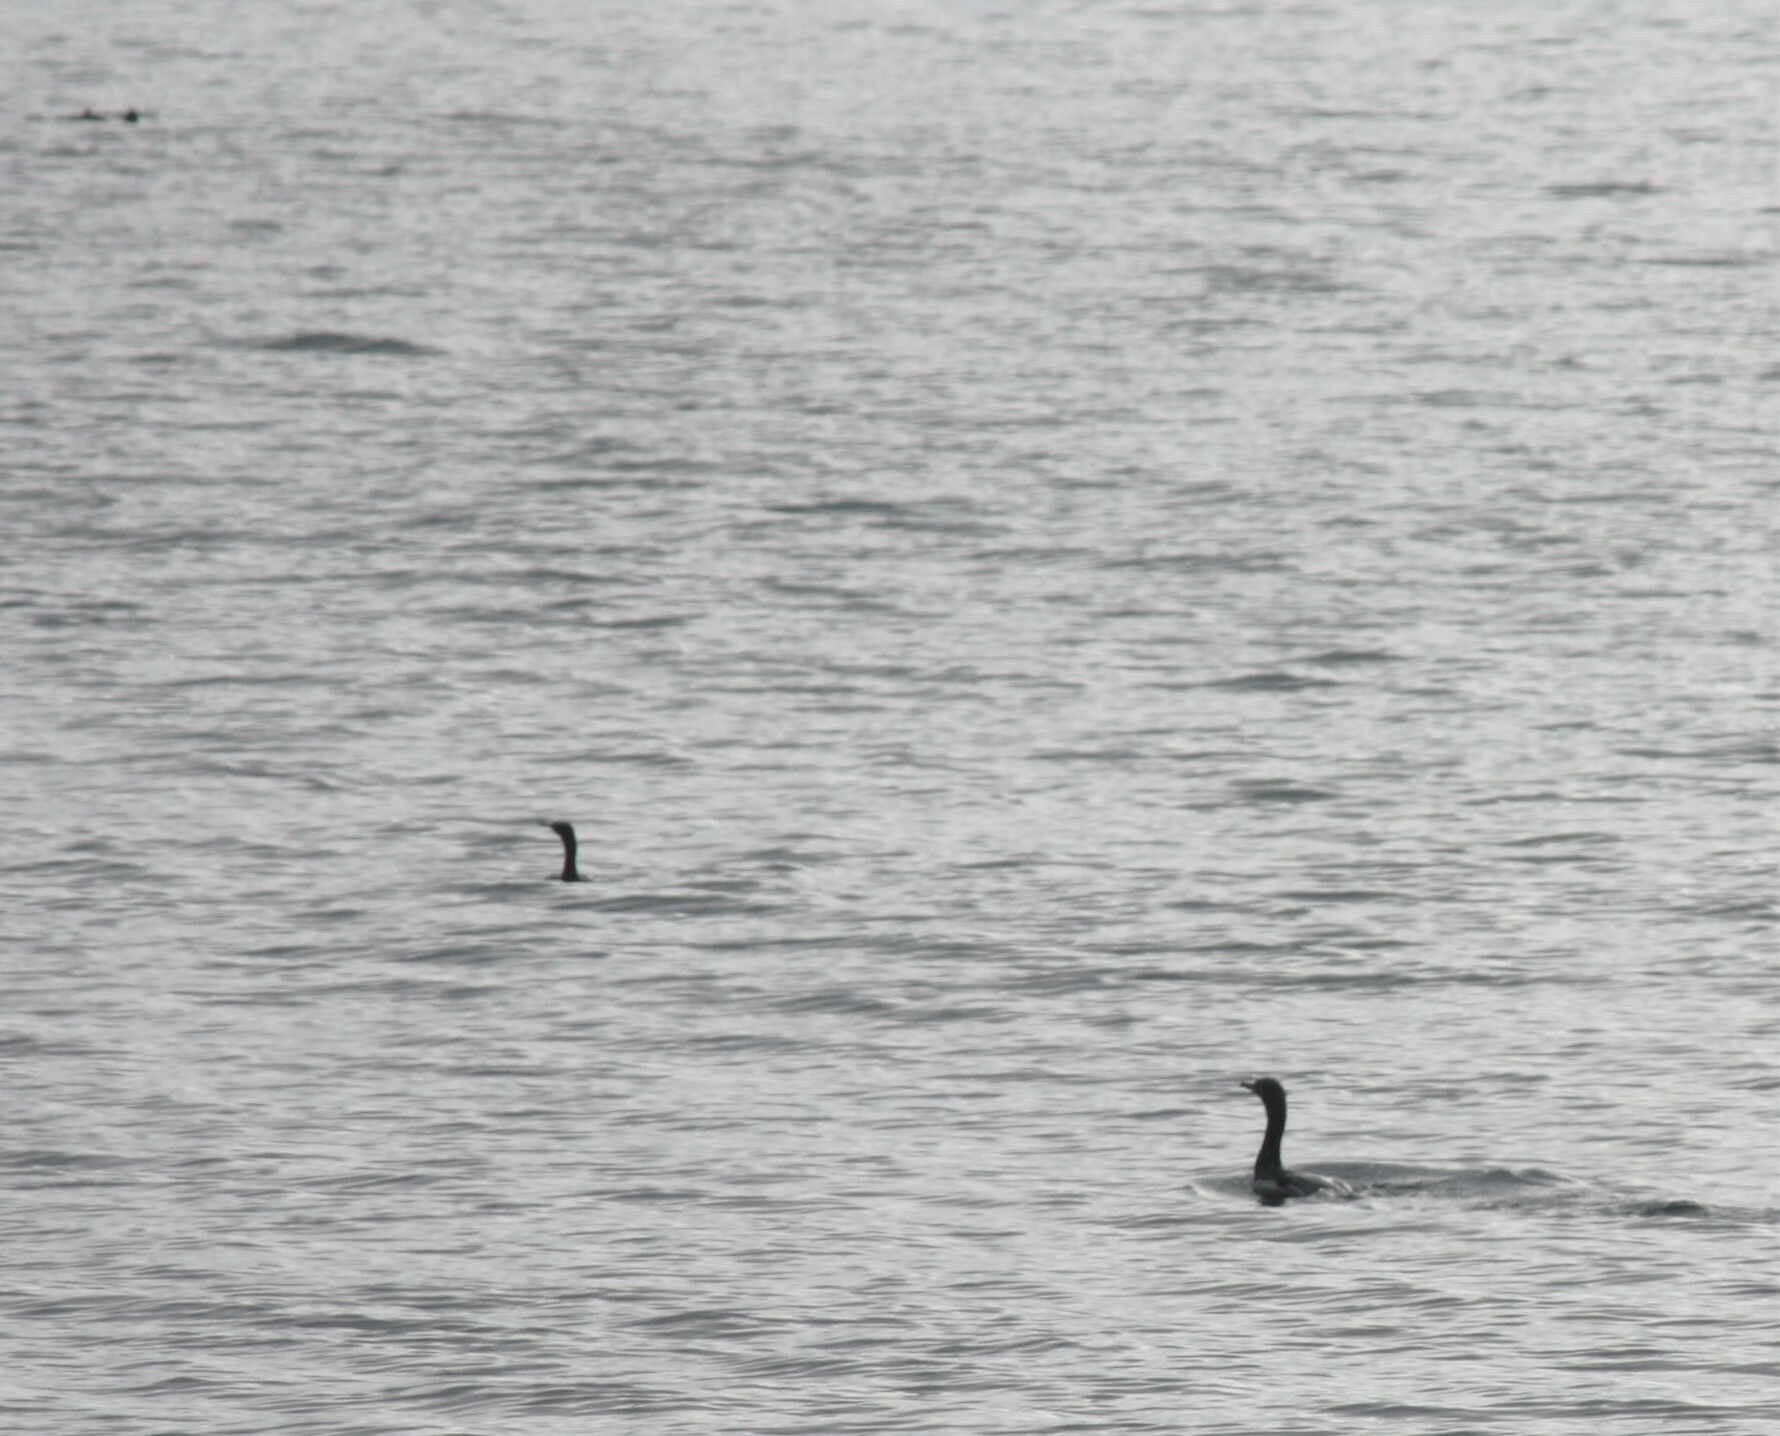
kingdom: Animalia
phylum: Chordata
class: Aves
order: Suliformes
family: Phalacrocoracidae
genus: Phalacrocorax
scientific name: Phalacrocorax pelagicus
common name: Pelagic cormorant
